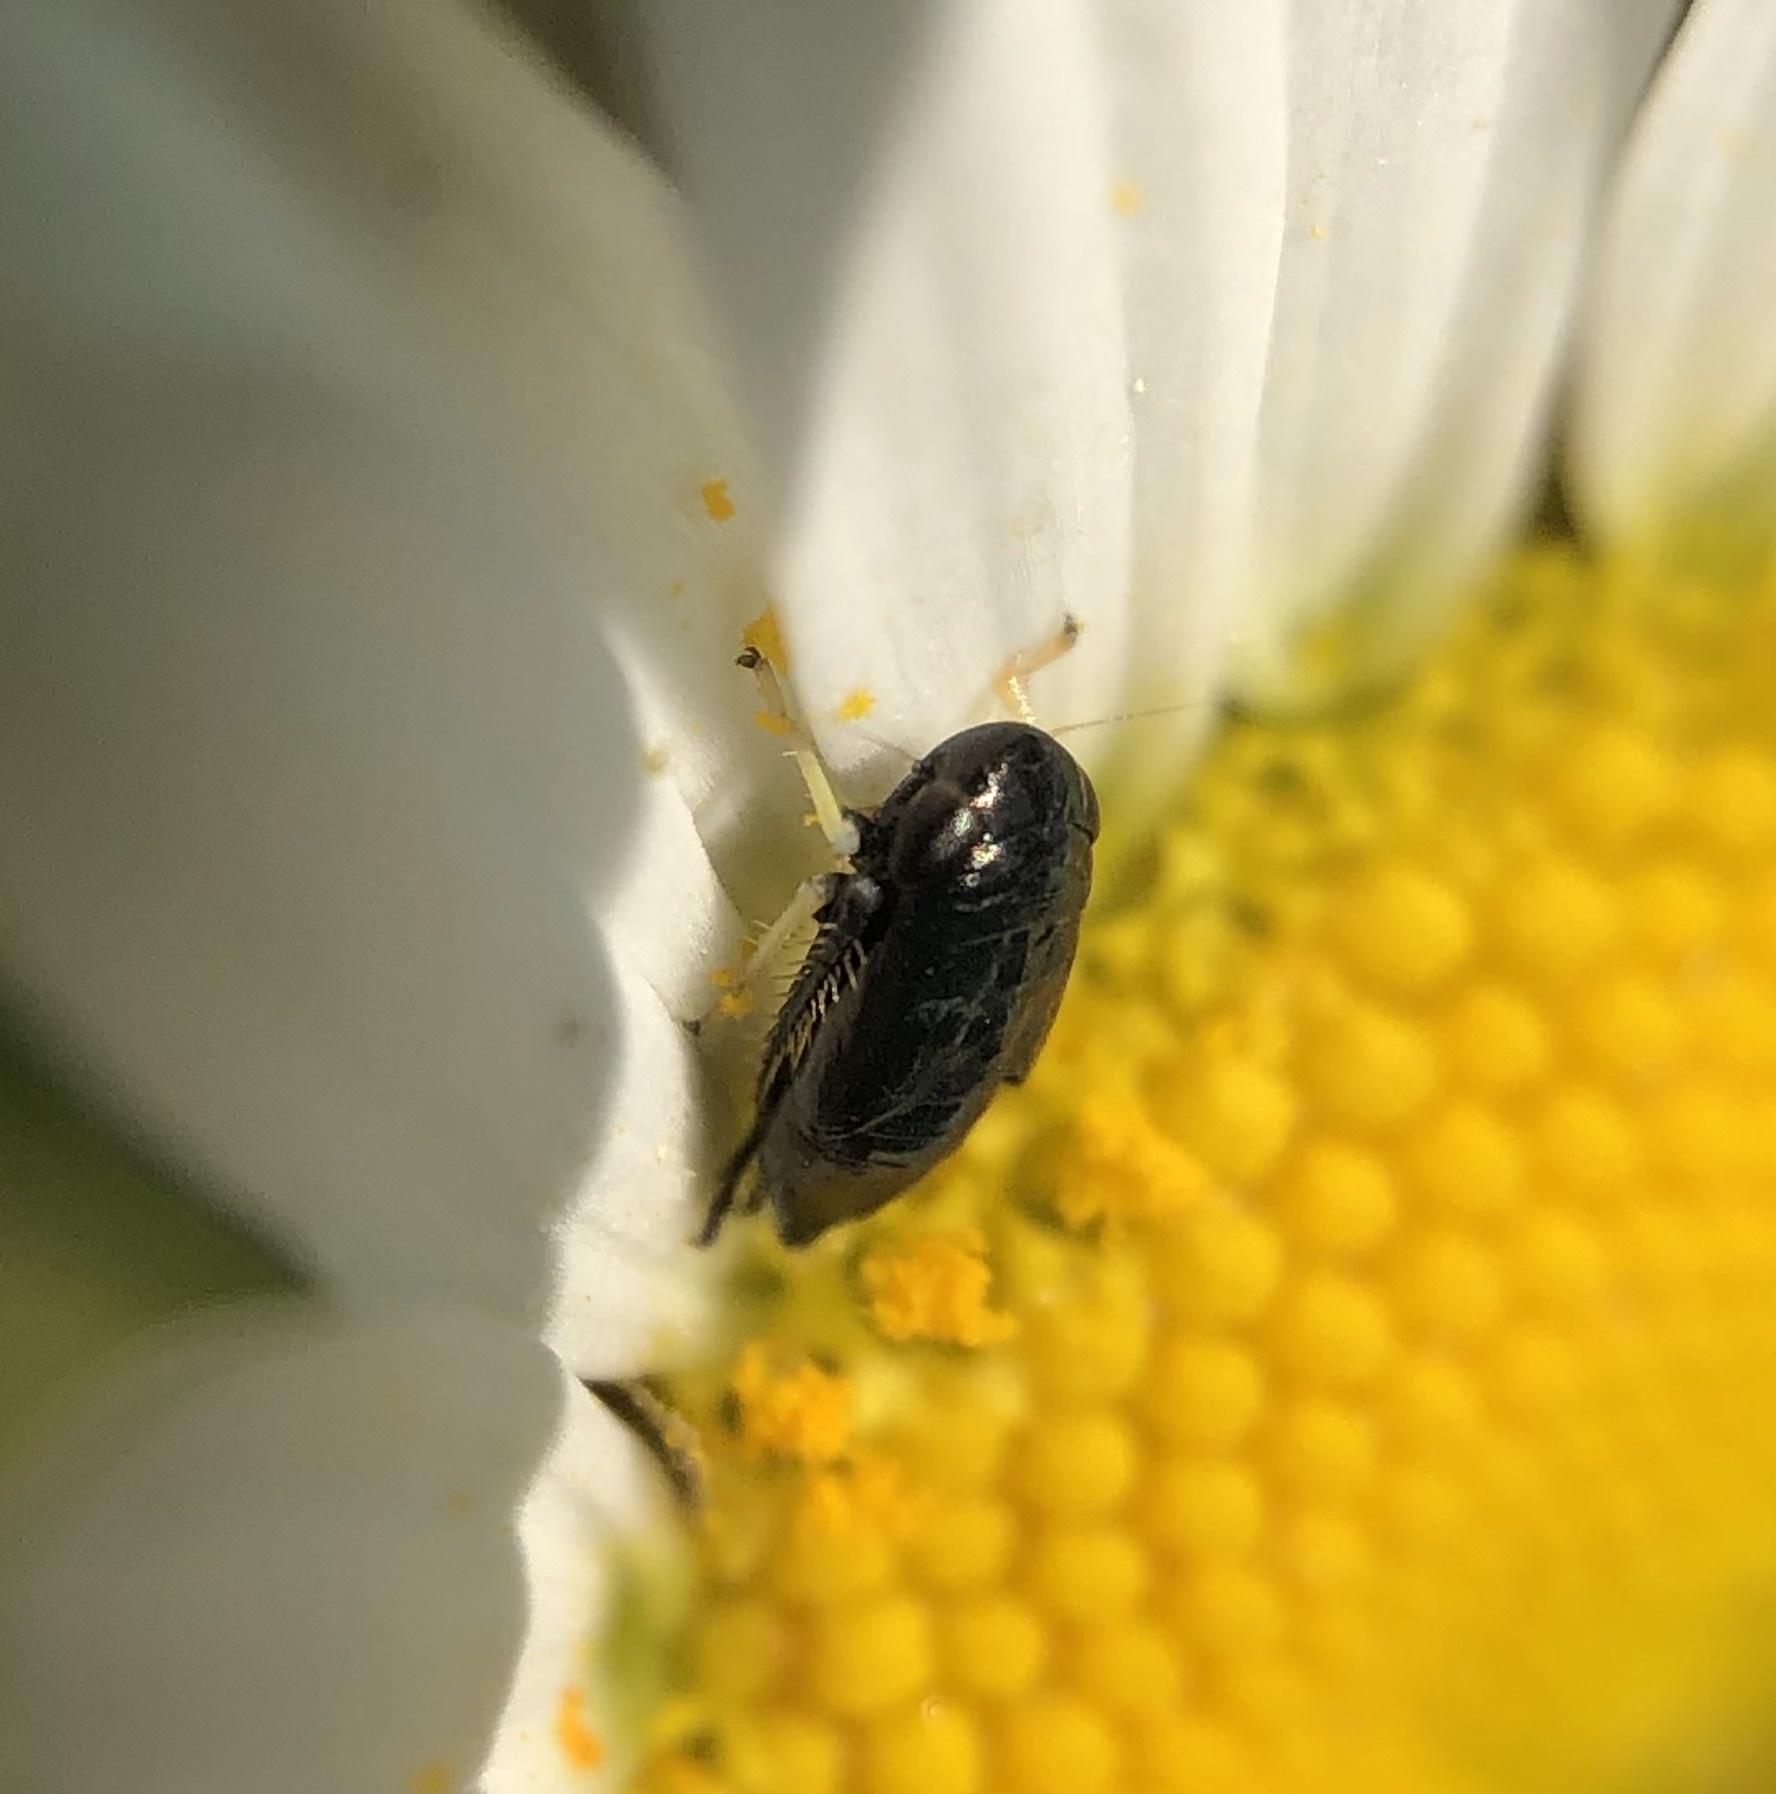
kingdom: Animalia
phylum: Arthropoda
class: Insecta
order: Hemiptera
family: Cicadellidae
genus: Scleroracus
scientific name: Scleroracus anthracinus
